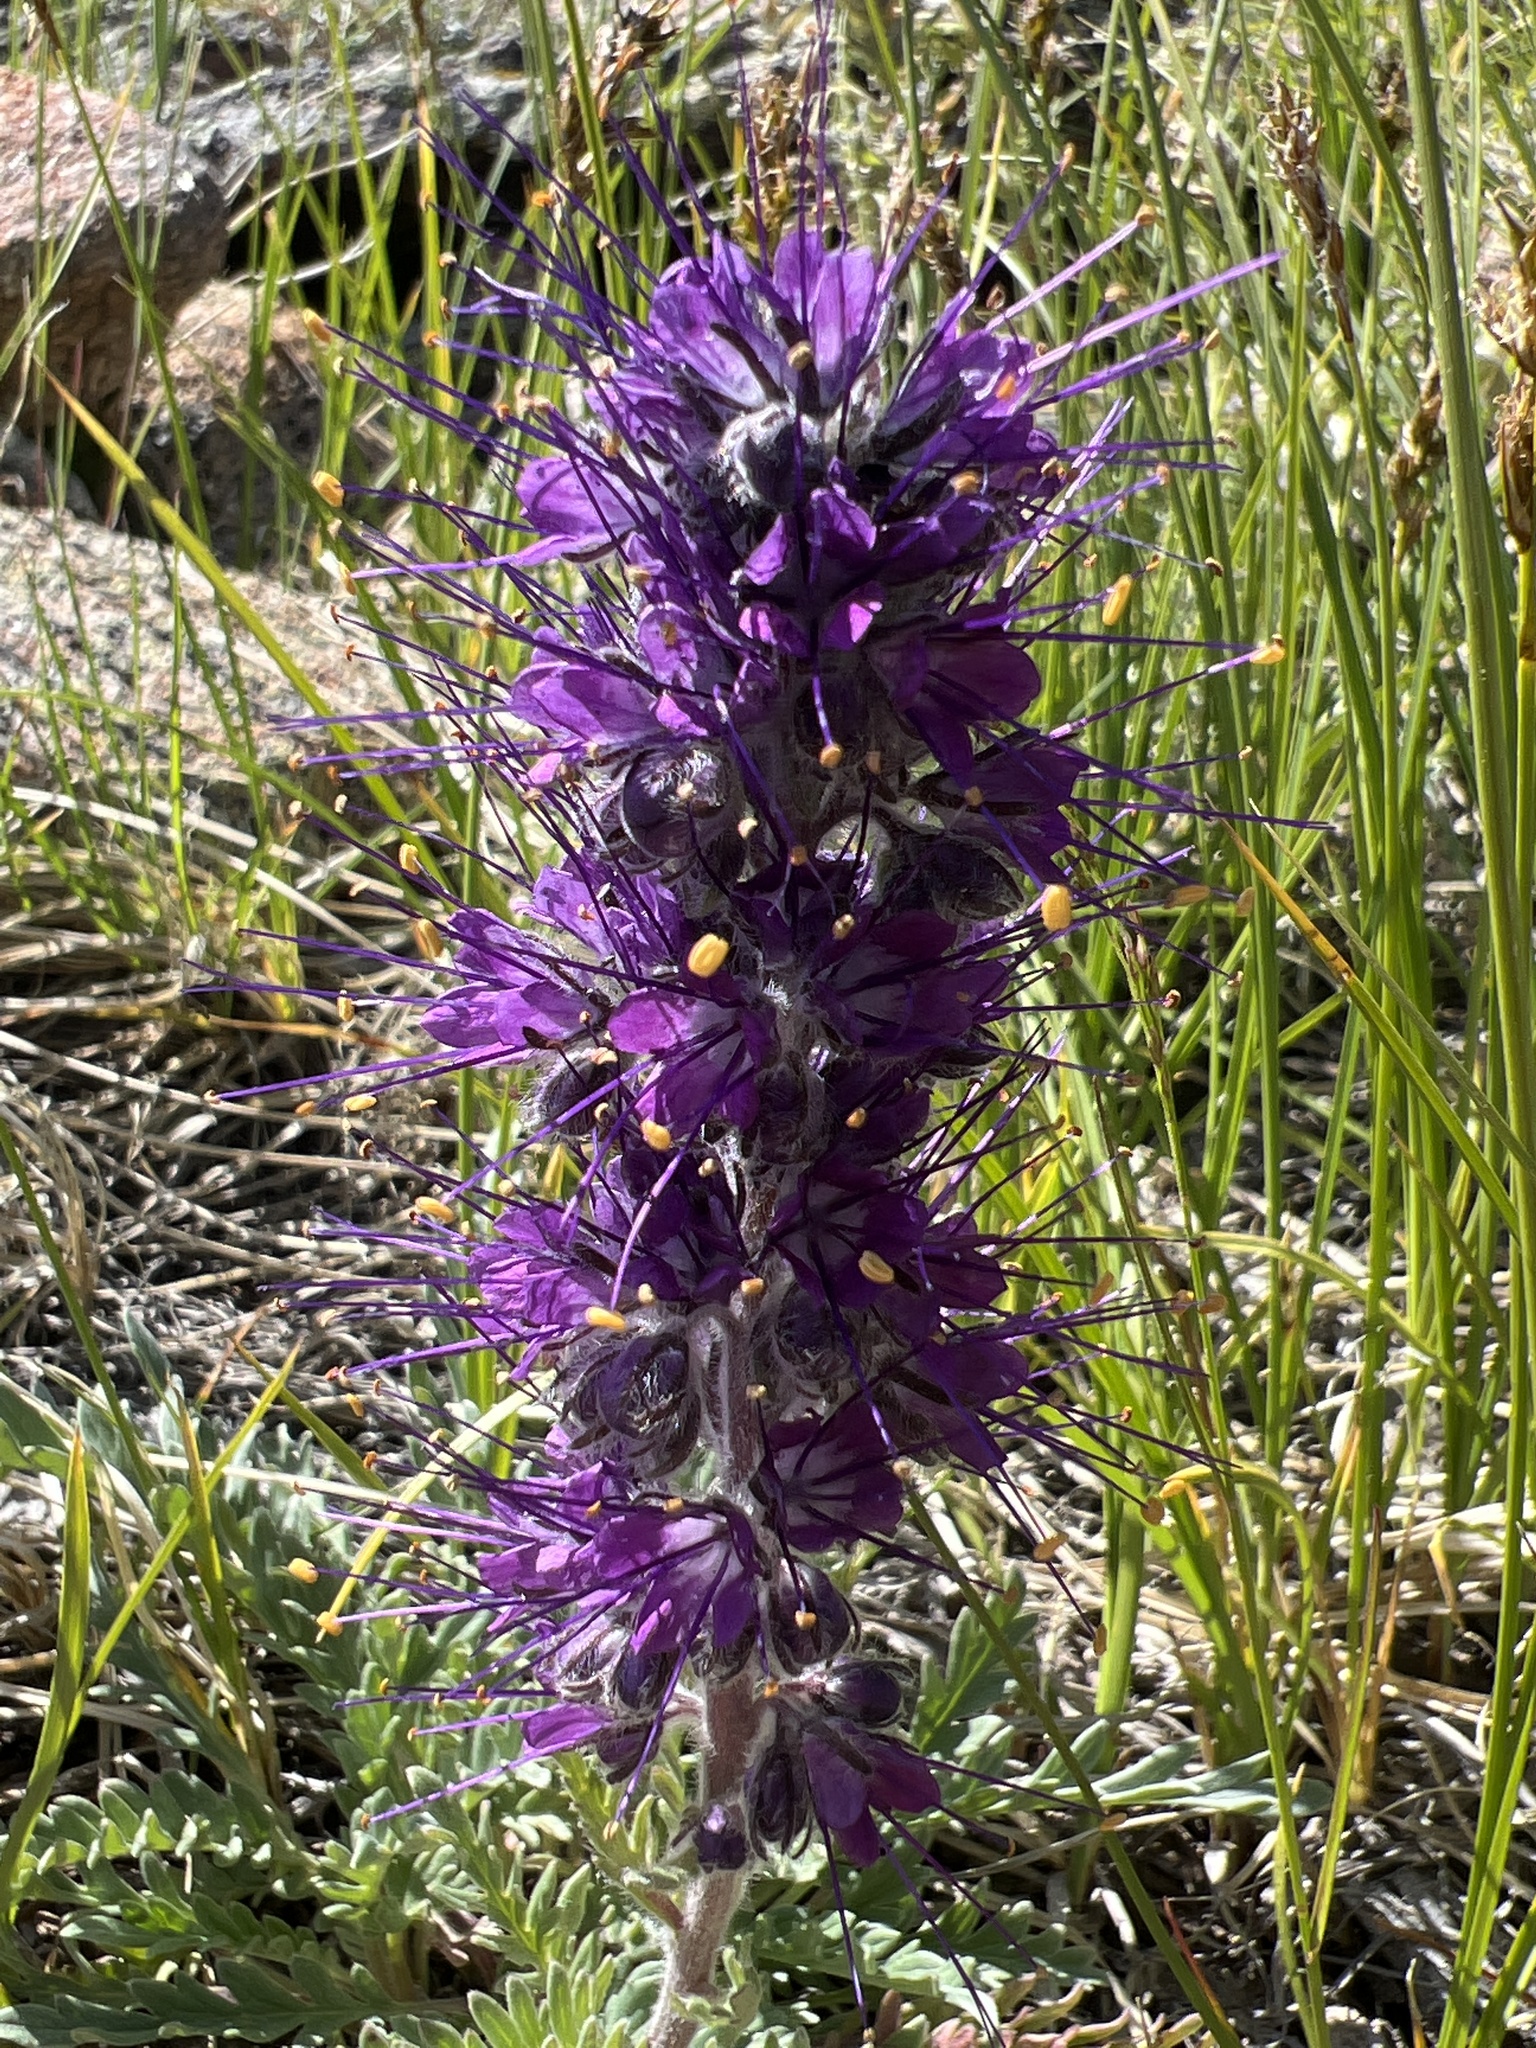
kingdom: Plantae
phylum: Tracheophyta
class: Magnoliopsida
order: Boraginales
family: Hydrophyllaceae
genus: Phacelia
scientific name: Phacelia sericea
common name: Silky phacelia
